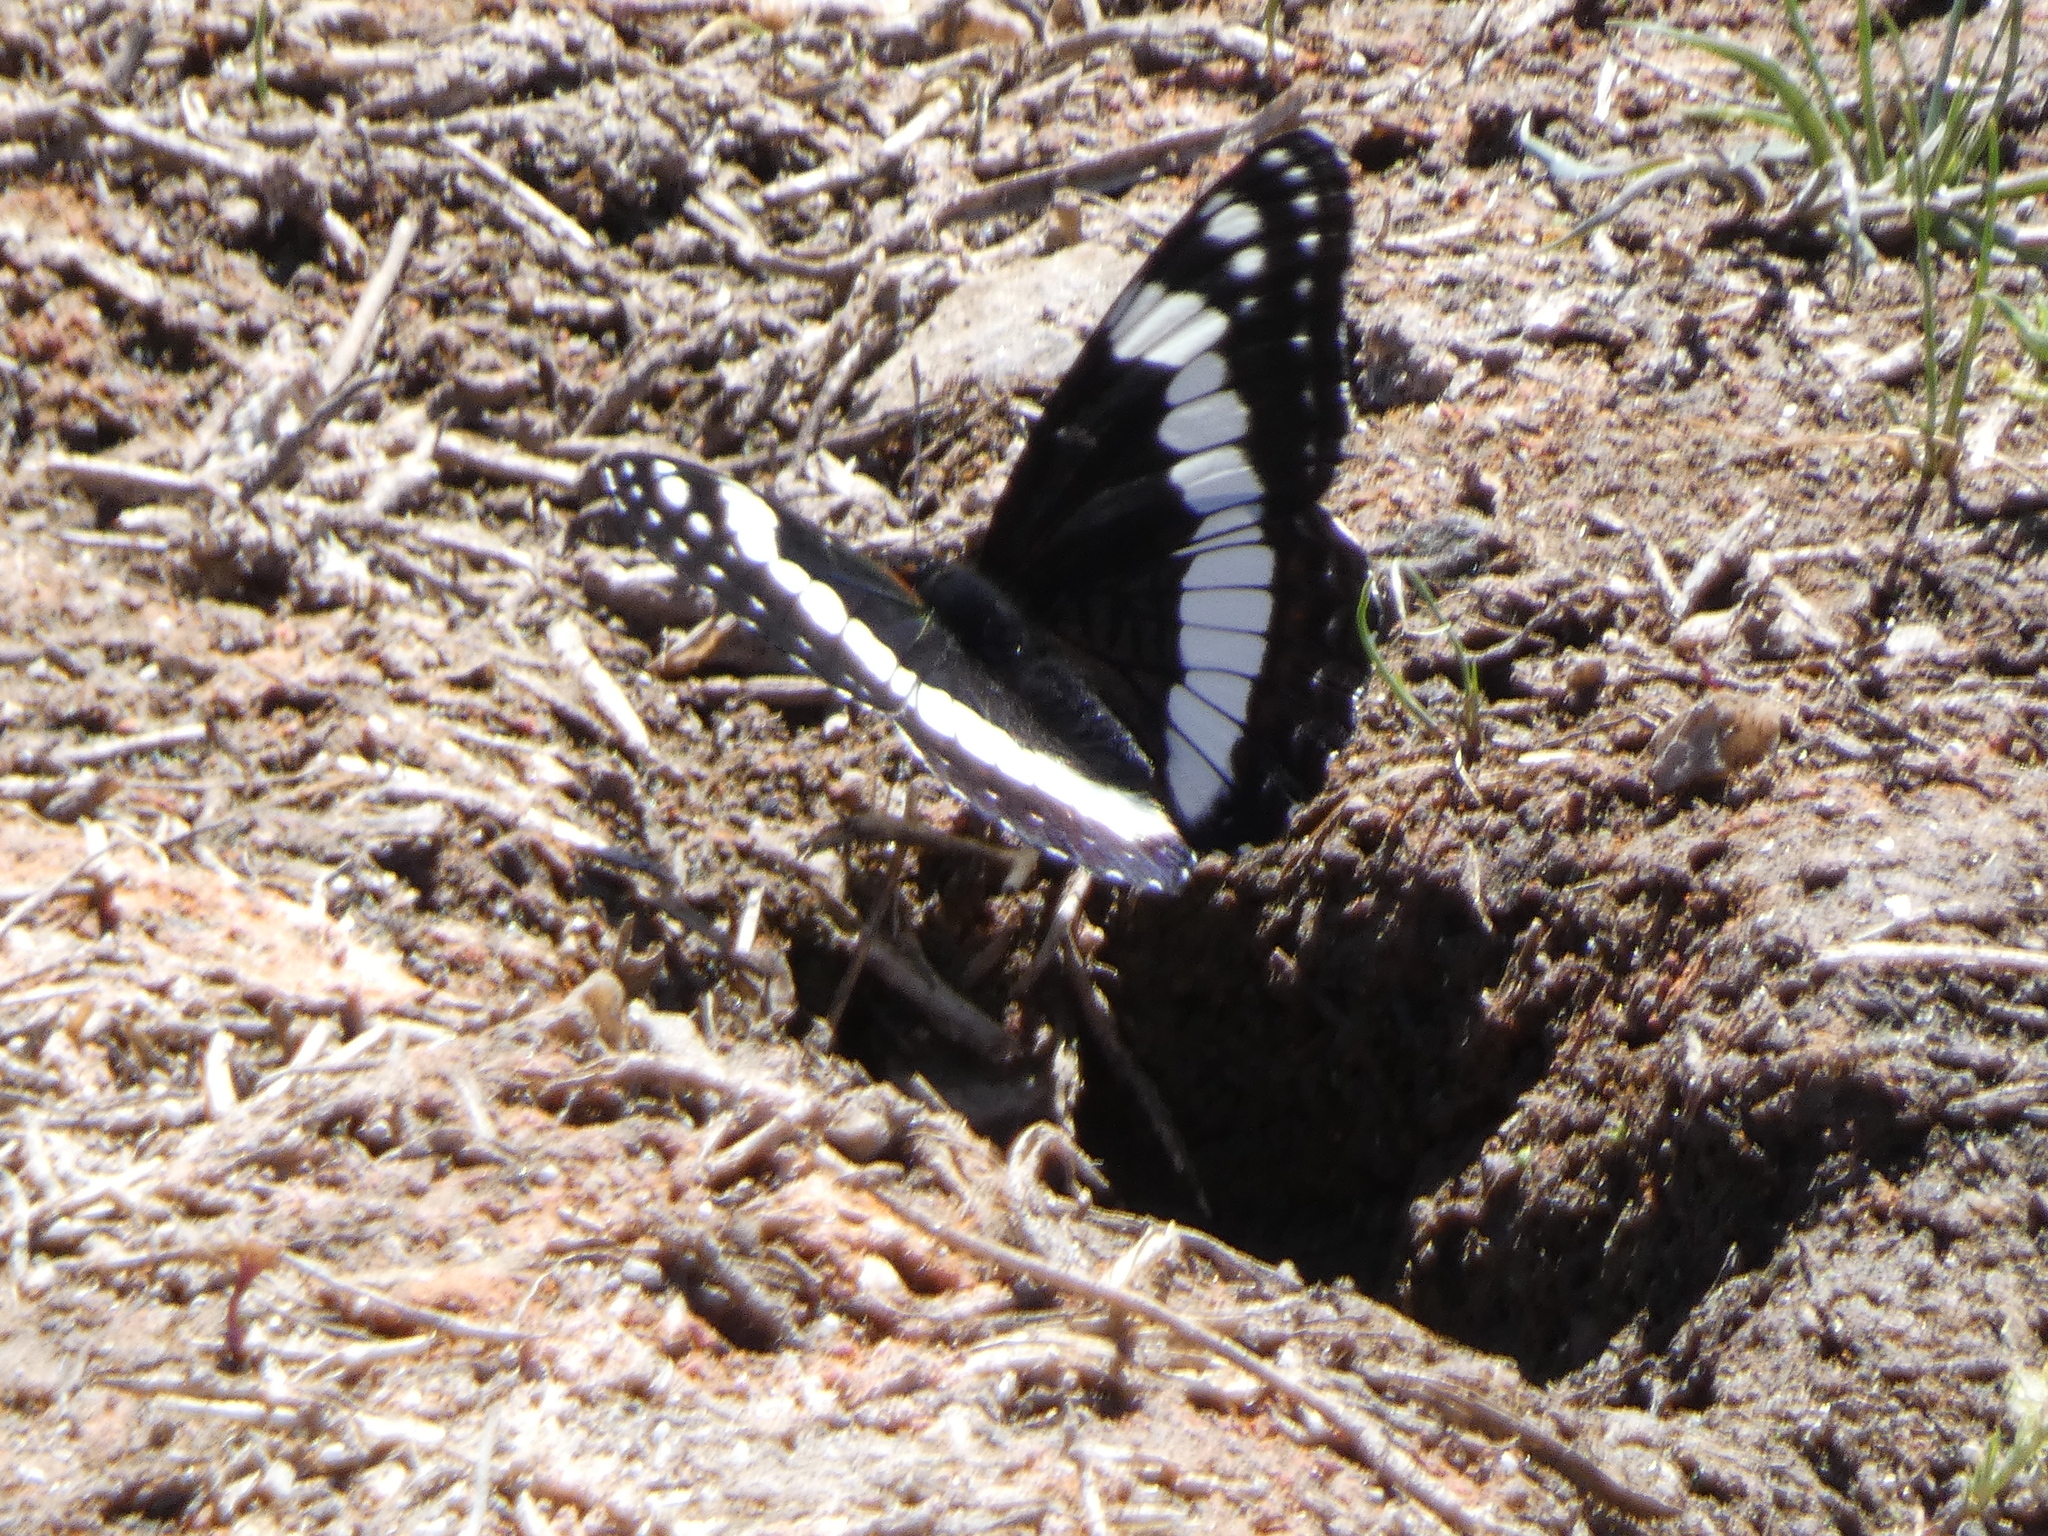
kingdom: Animalia
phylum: Arthropoda
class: Insecta
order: Lepidoptera
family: Nymphalidae
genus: Limenitis
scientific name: Limenitis weidemeyerii
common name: Weidemeyer's admiral
